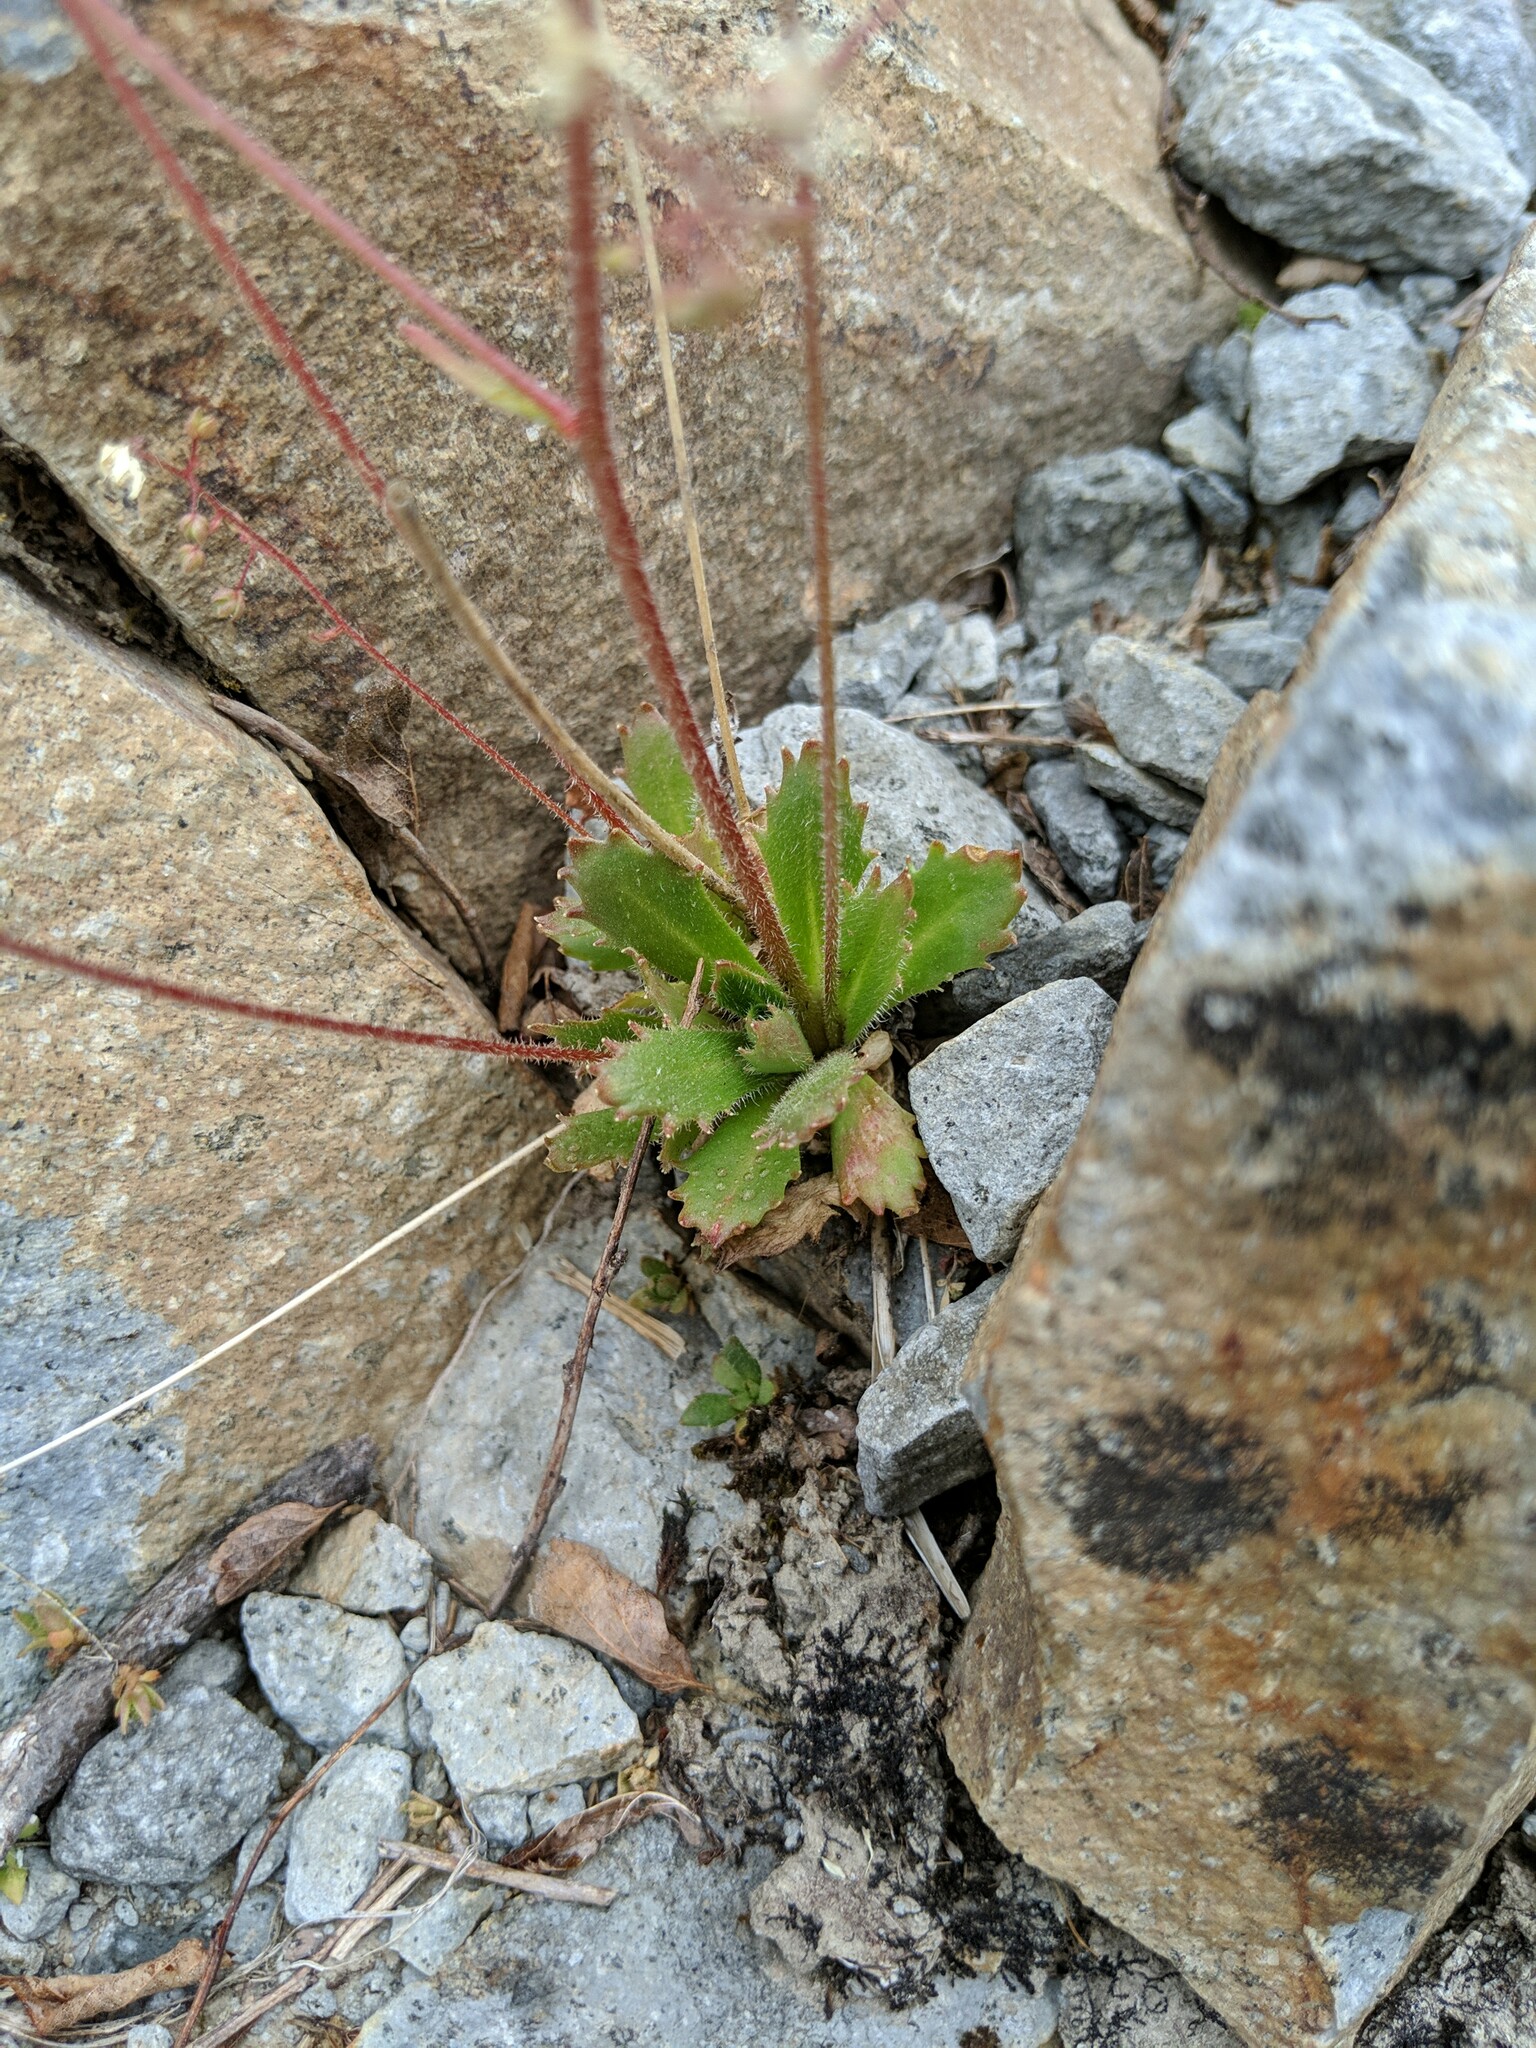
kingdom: Plantae
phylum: Tracheophyta
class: Magnoliopsida
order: Saxifragales
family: Saxifragaceae
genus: Micranthes
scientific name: Micranthes ferruginea
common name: Rusty saxifrage
